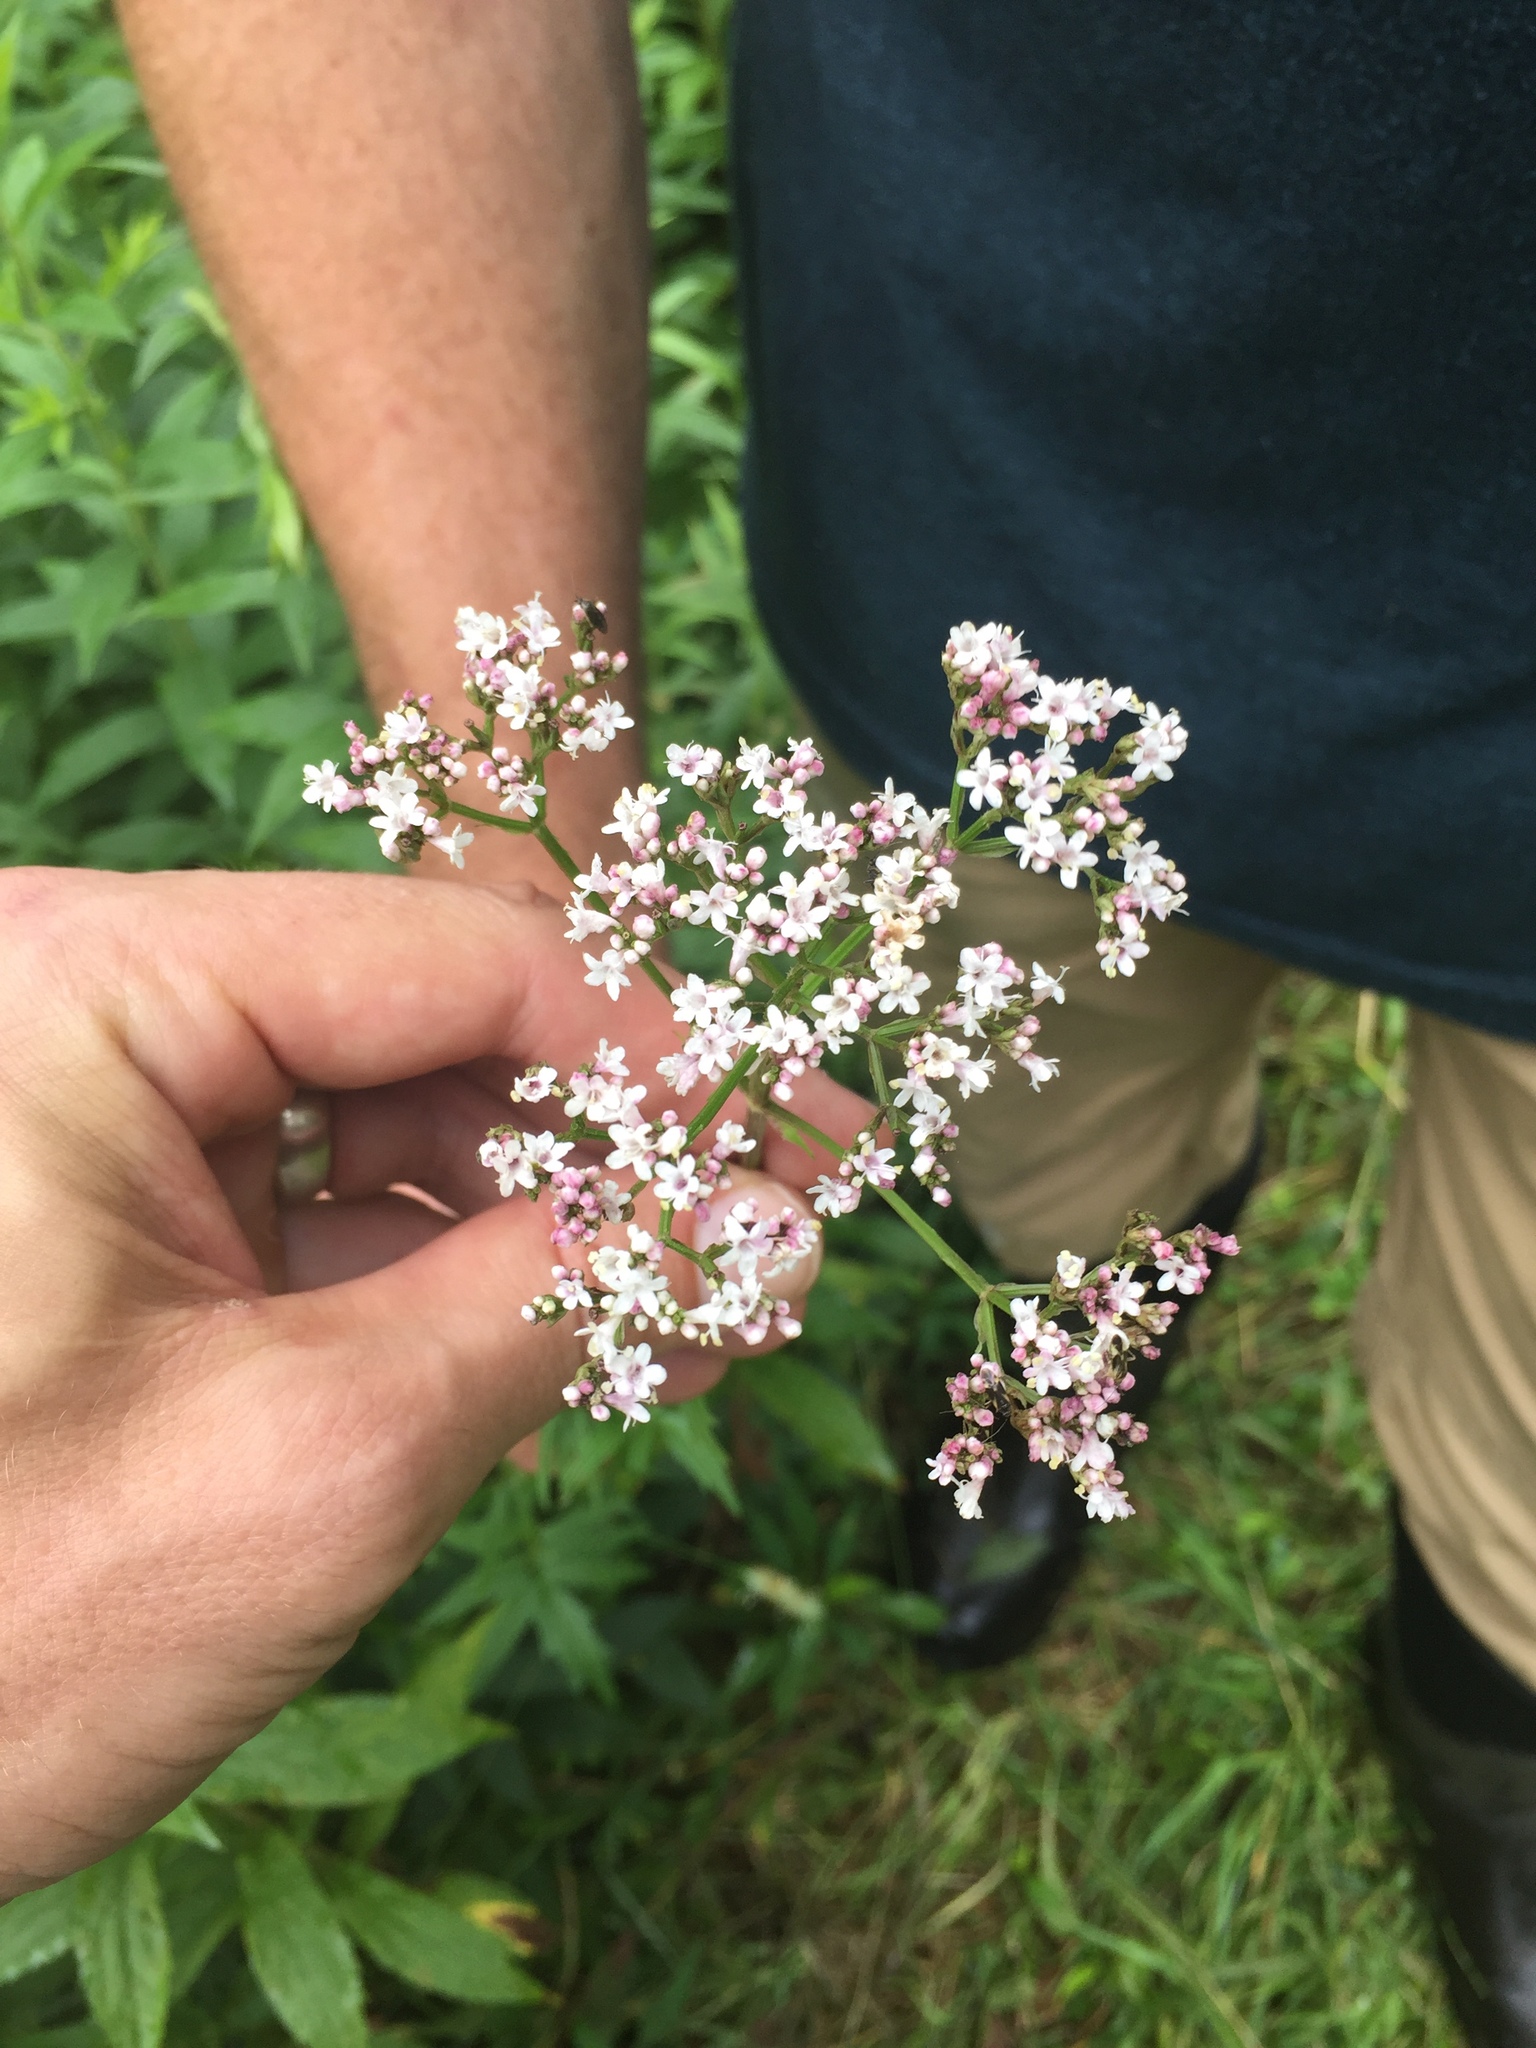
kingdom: Plantae
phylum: Tracheophyta
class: Magnoliopsida
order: Dipsacales
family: Caprifoliaceae
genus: Valeriana
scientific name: Valeriana officinalis
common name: Common valerian
